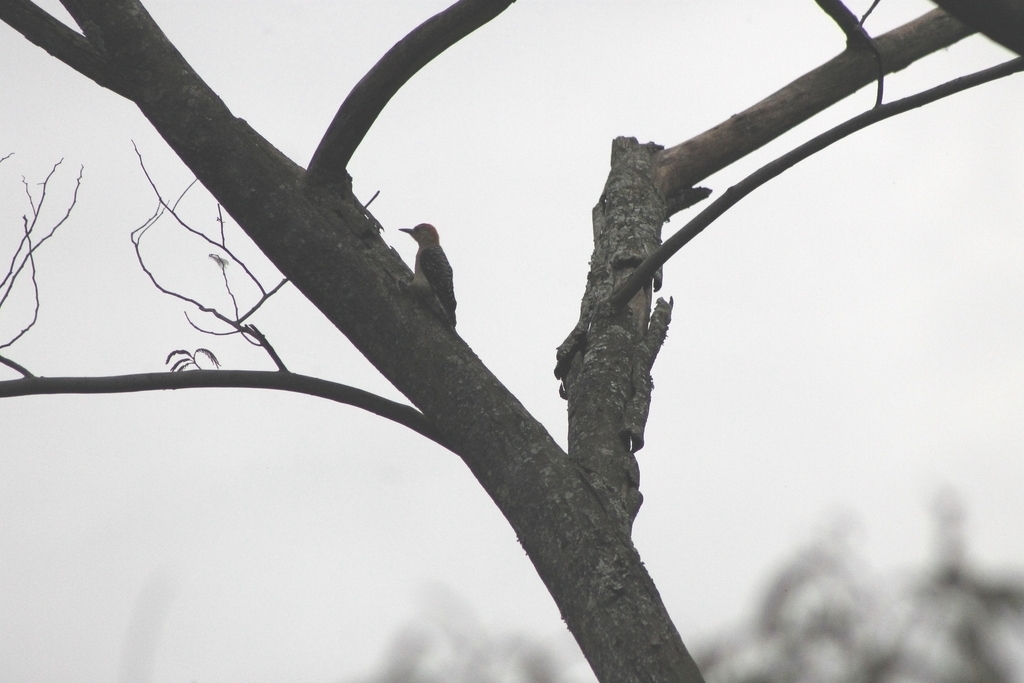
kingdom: Animalia
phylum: Chordata
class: Aves
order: Piciformes
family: Picidae
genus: Melanerpes
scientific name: Melanerpes rubricapillus
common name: Red-crowned woodpecker
